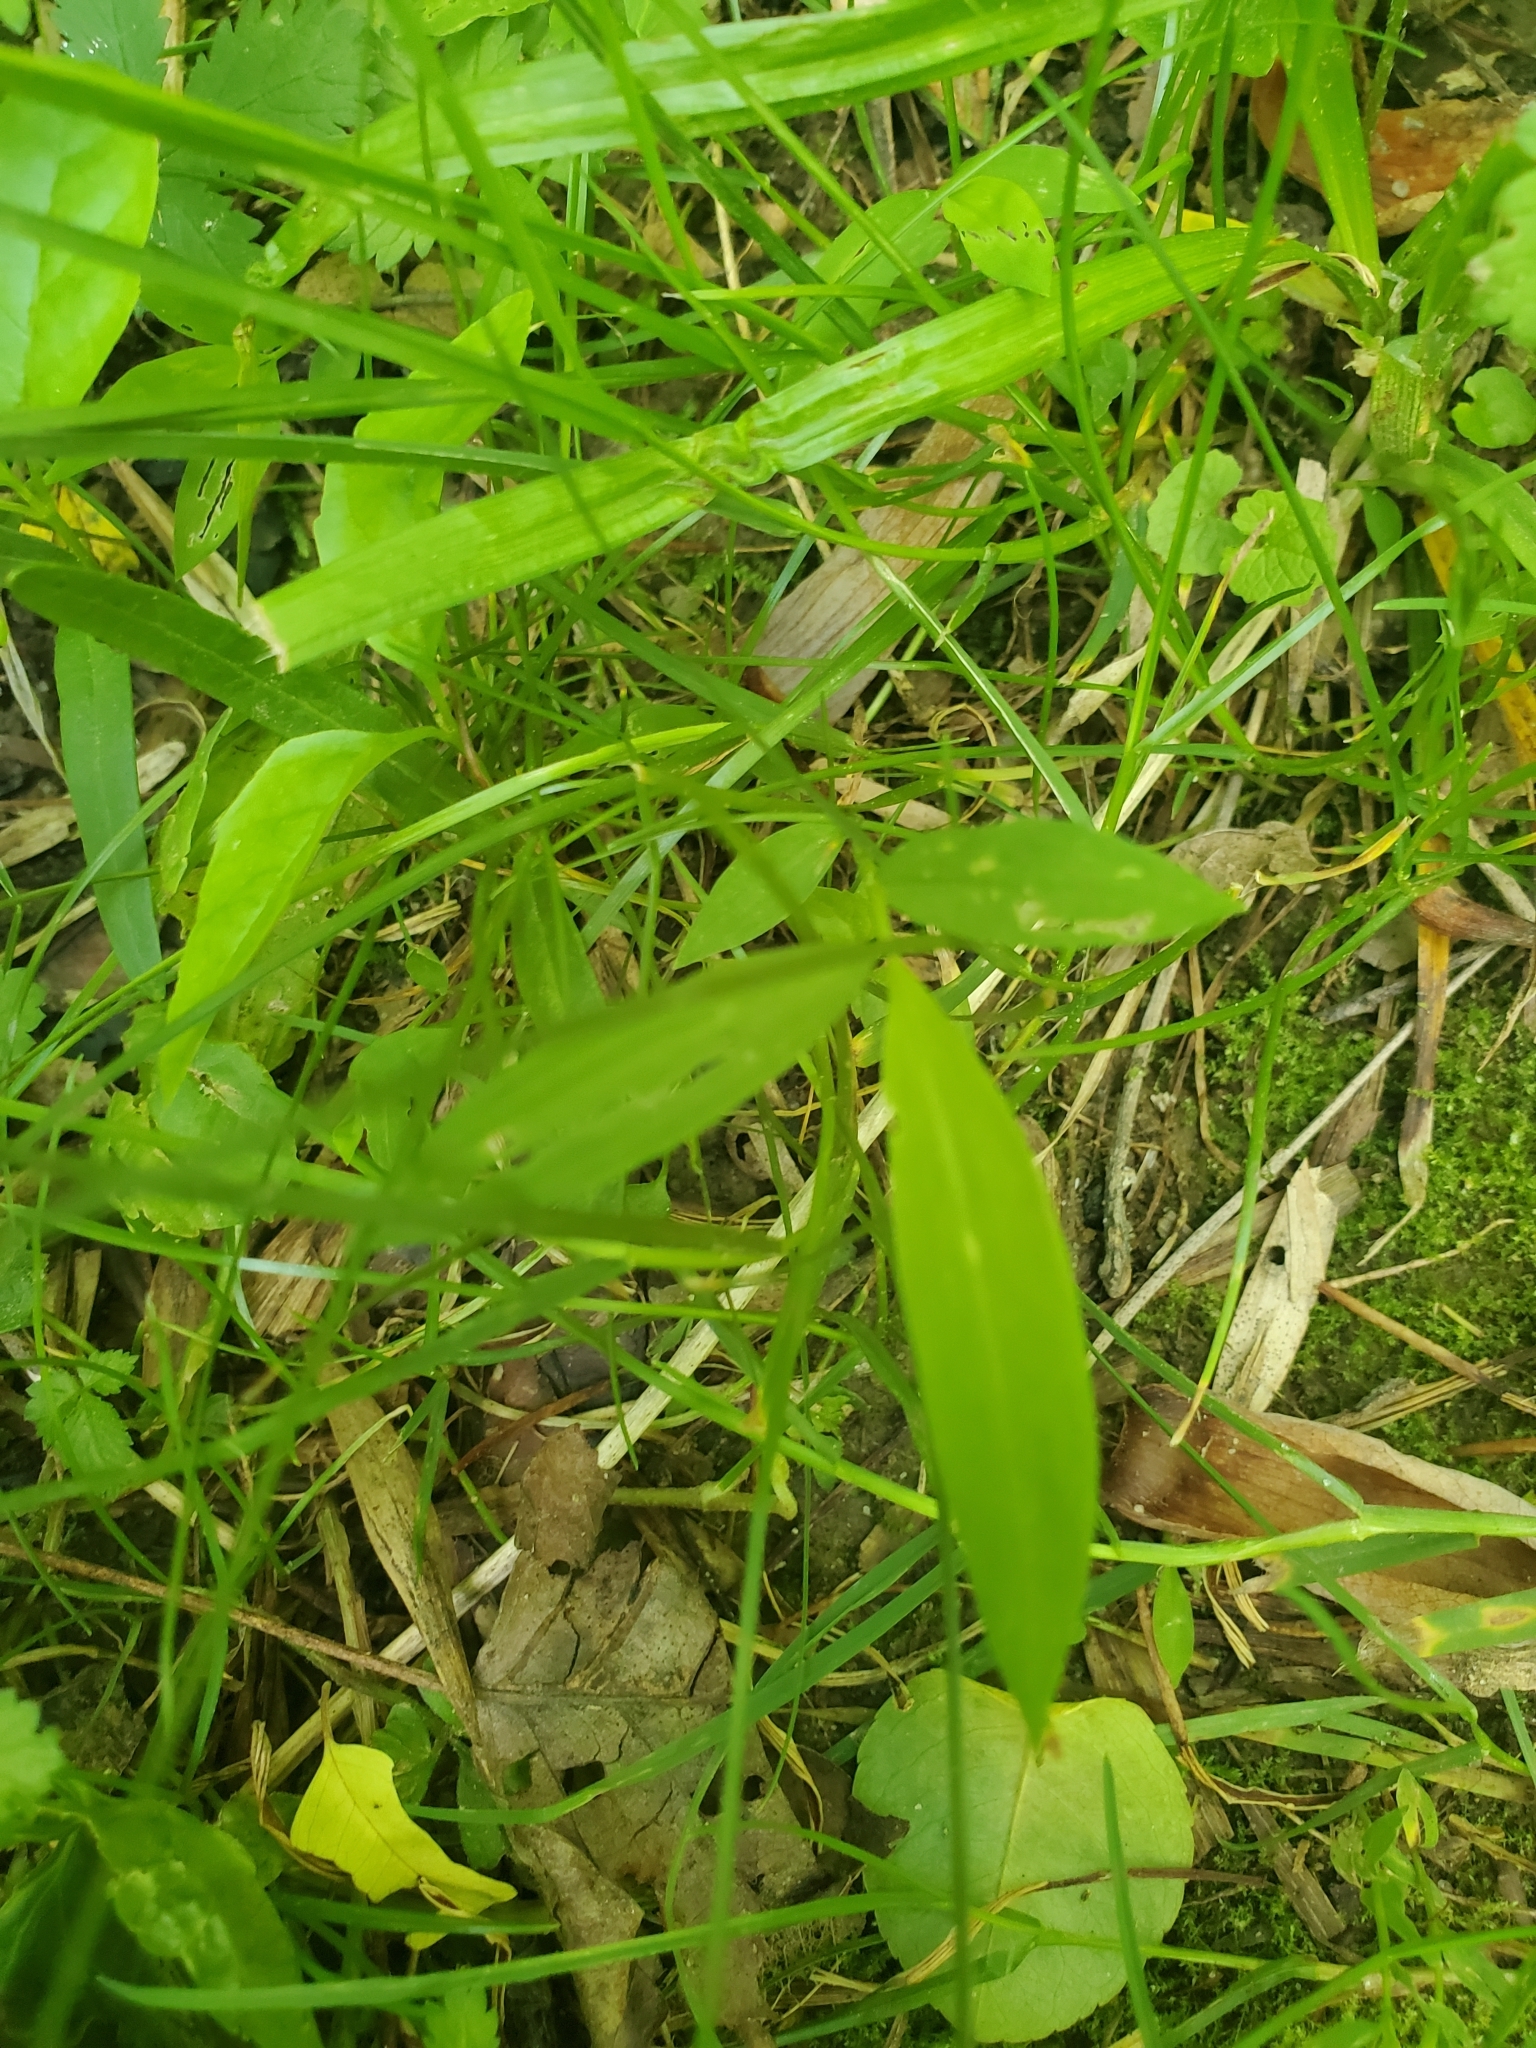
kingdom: Plantae
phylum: Tracheophyta
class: Liliopsida
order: Poales
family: Poaceae
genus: Microstegium
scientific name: Microstegium vimineum
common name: Japanese stiltgrass
